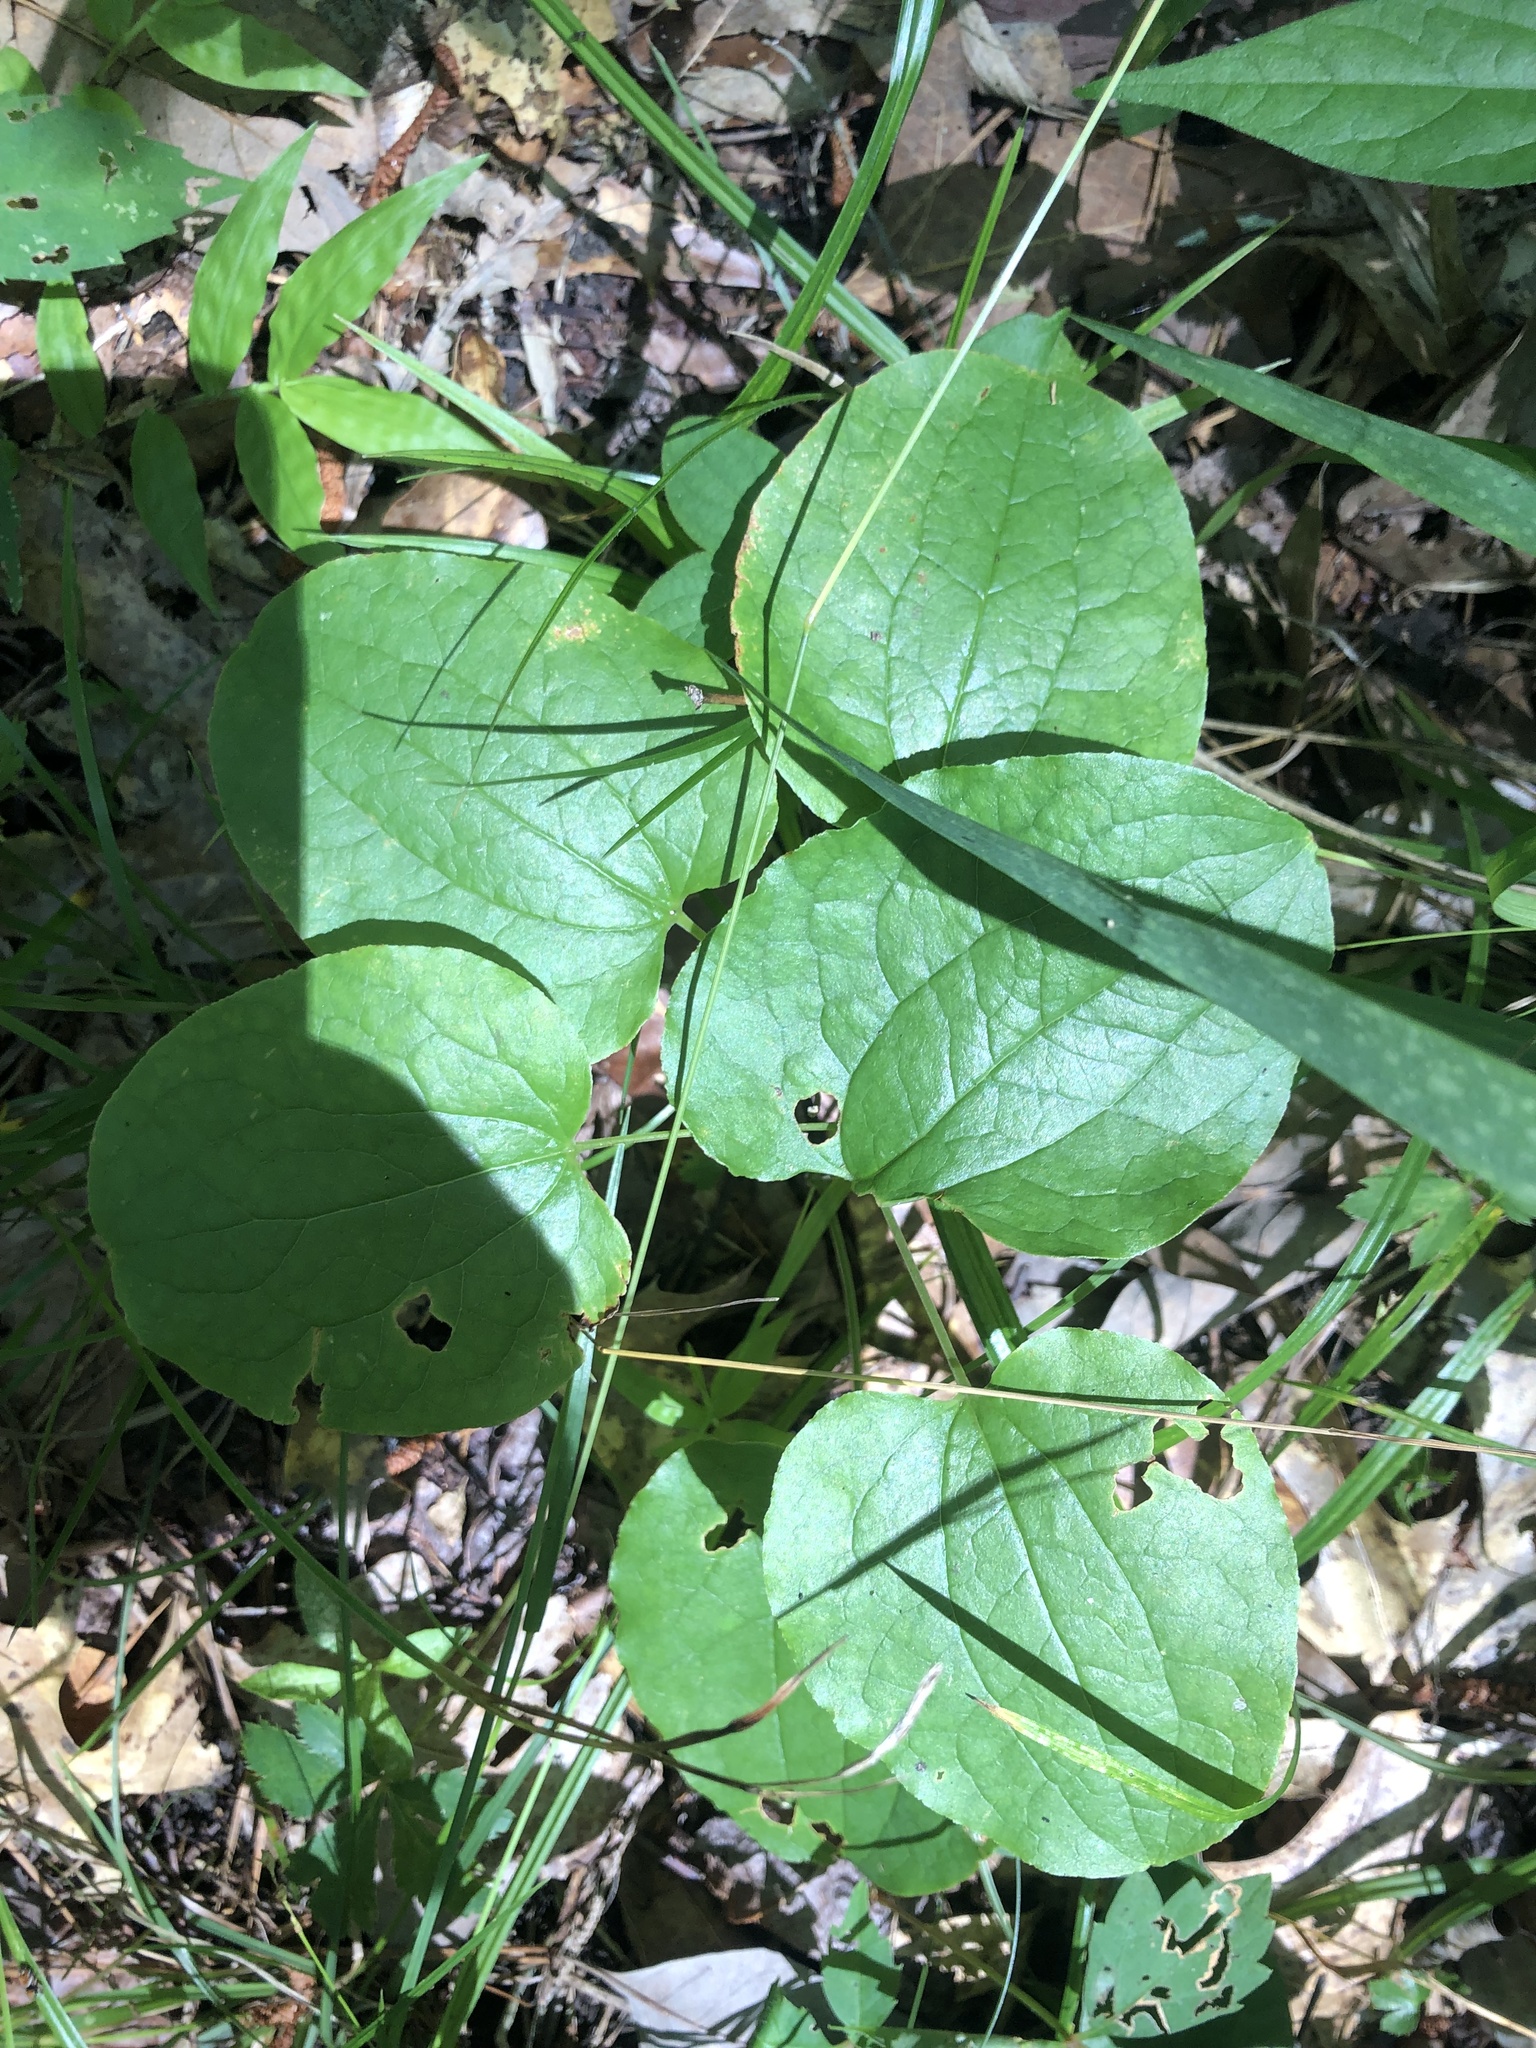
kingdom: Plantae
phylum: Tracheophyta
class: Liliopsida
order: Liliales
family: Smilacaceae
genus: Smilax
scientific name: Smilax lasioneura
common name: Blue ridge carrionflower
